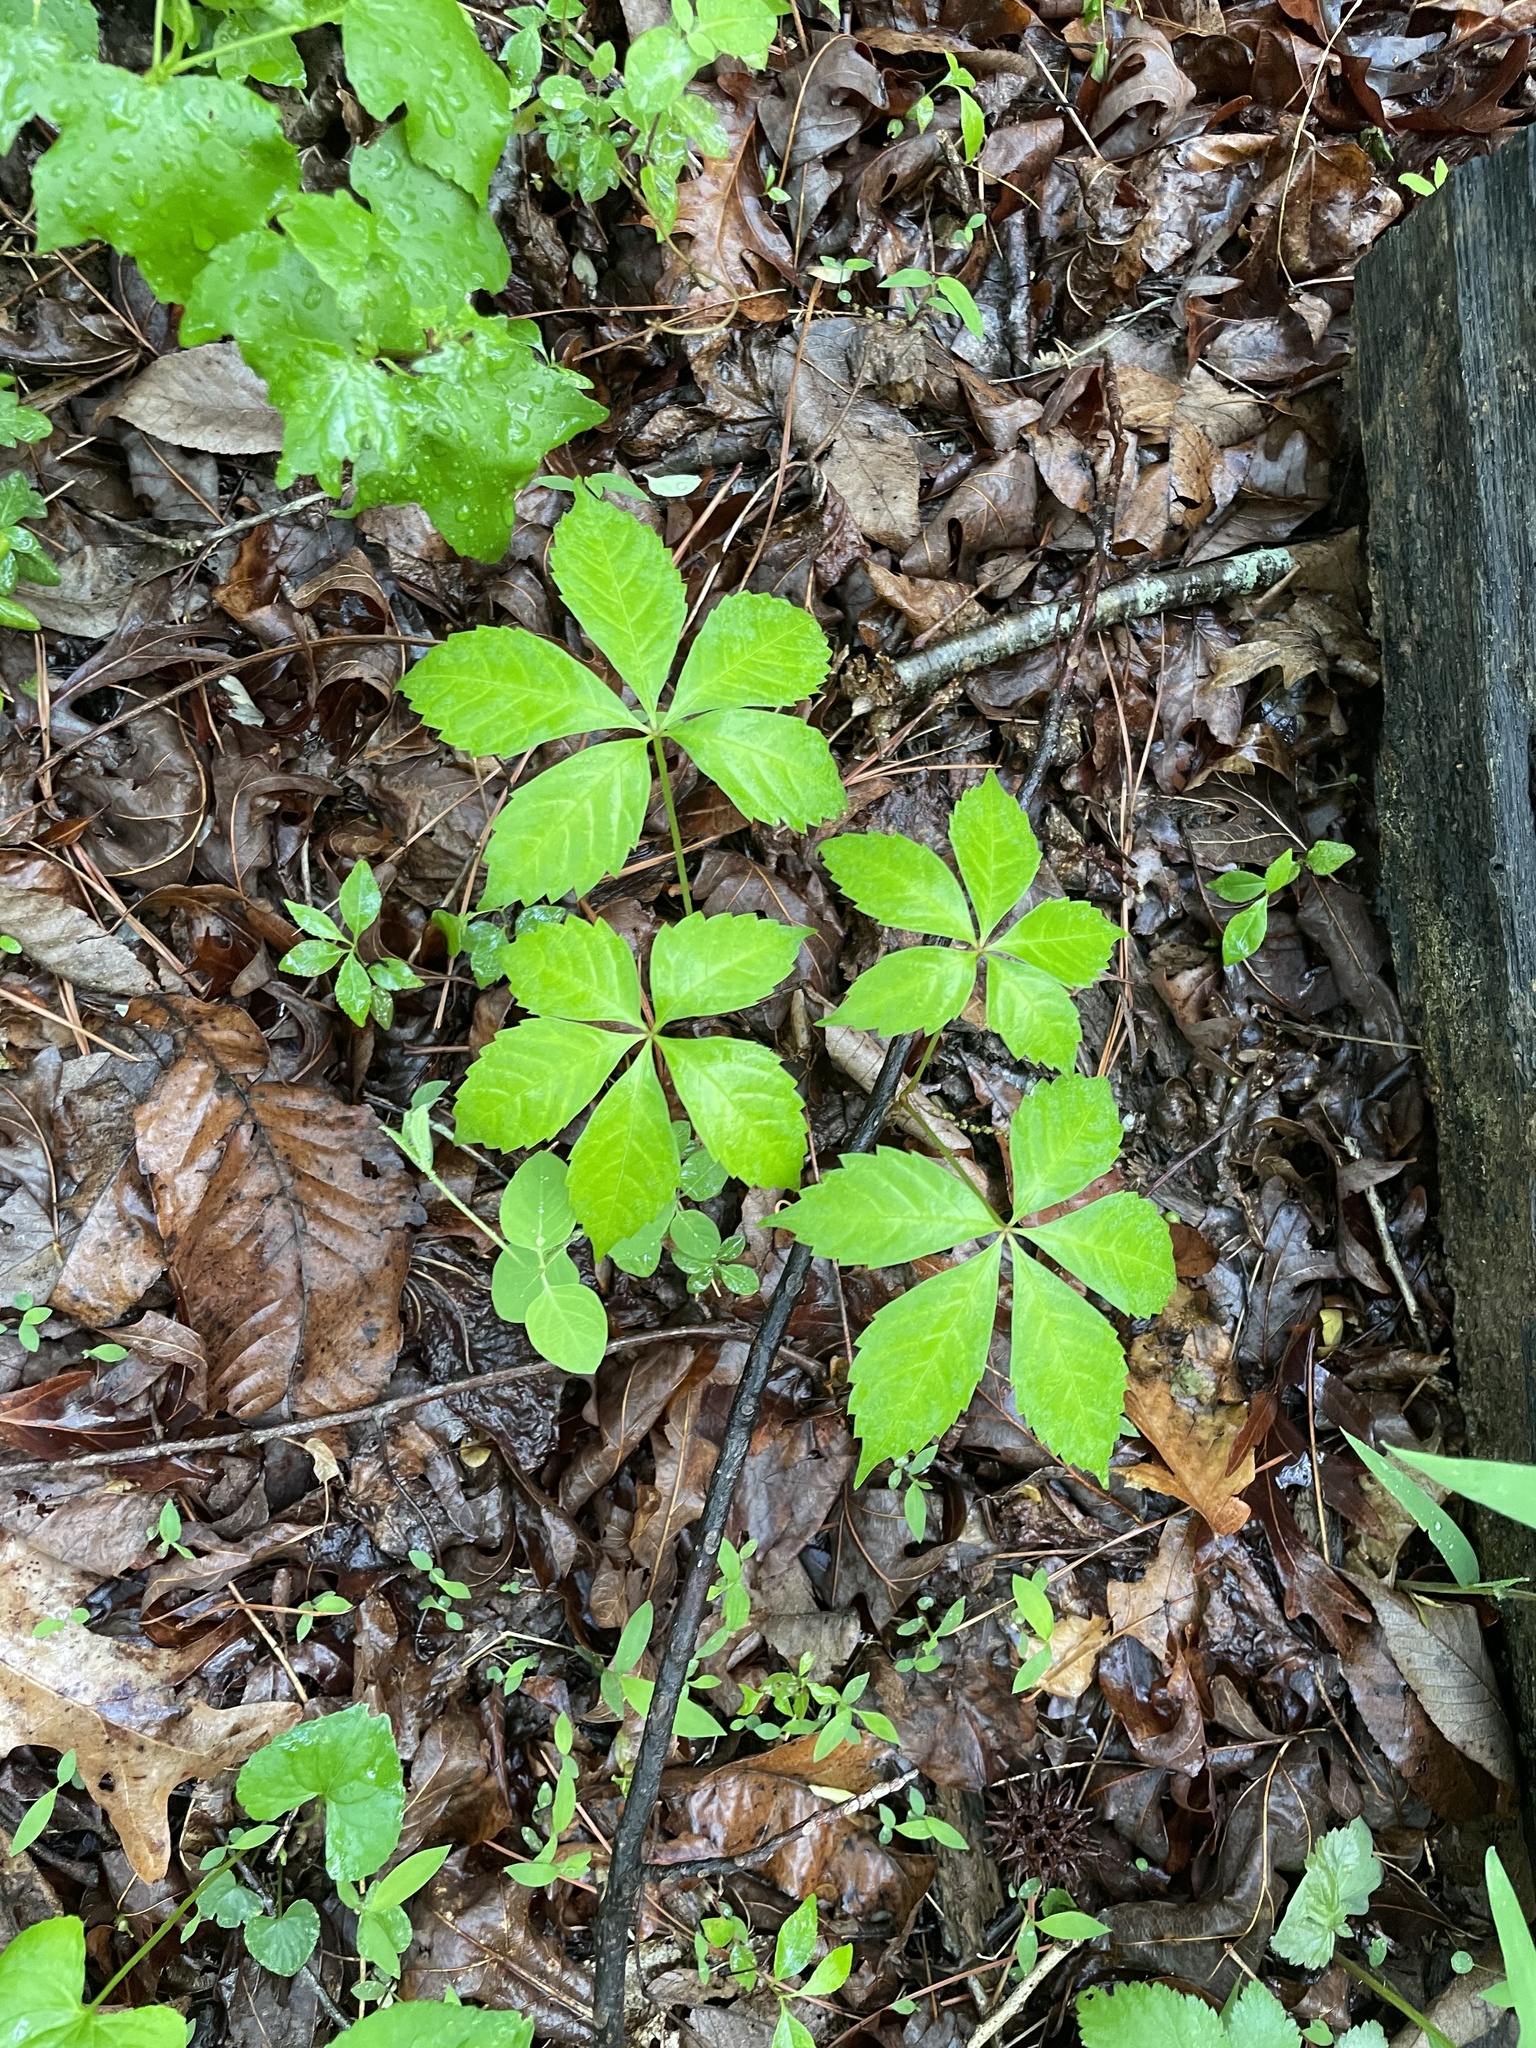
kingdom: Plantae
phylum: Tracheophyta
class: Magnoliopsida
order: Vitales
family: Vitaceae
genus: Parthenocissus
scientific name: Parthenocissus quinquefolia
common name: Virginia-creeper
